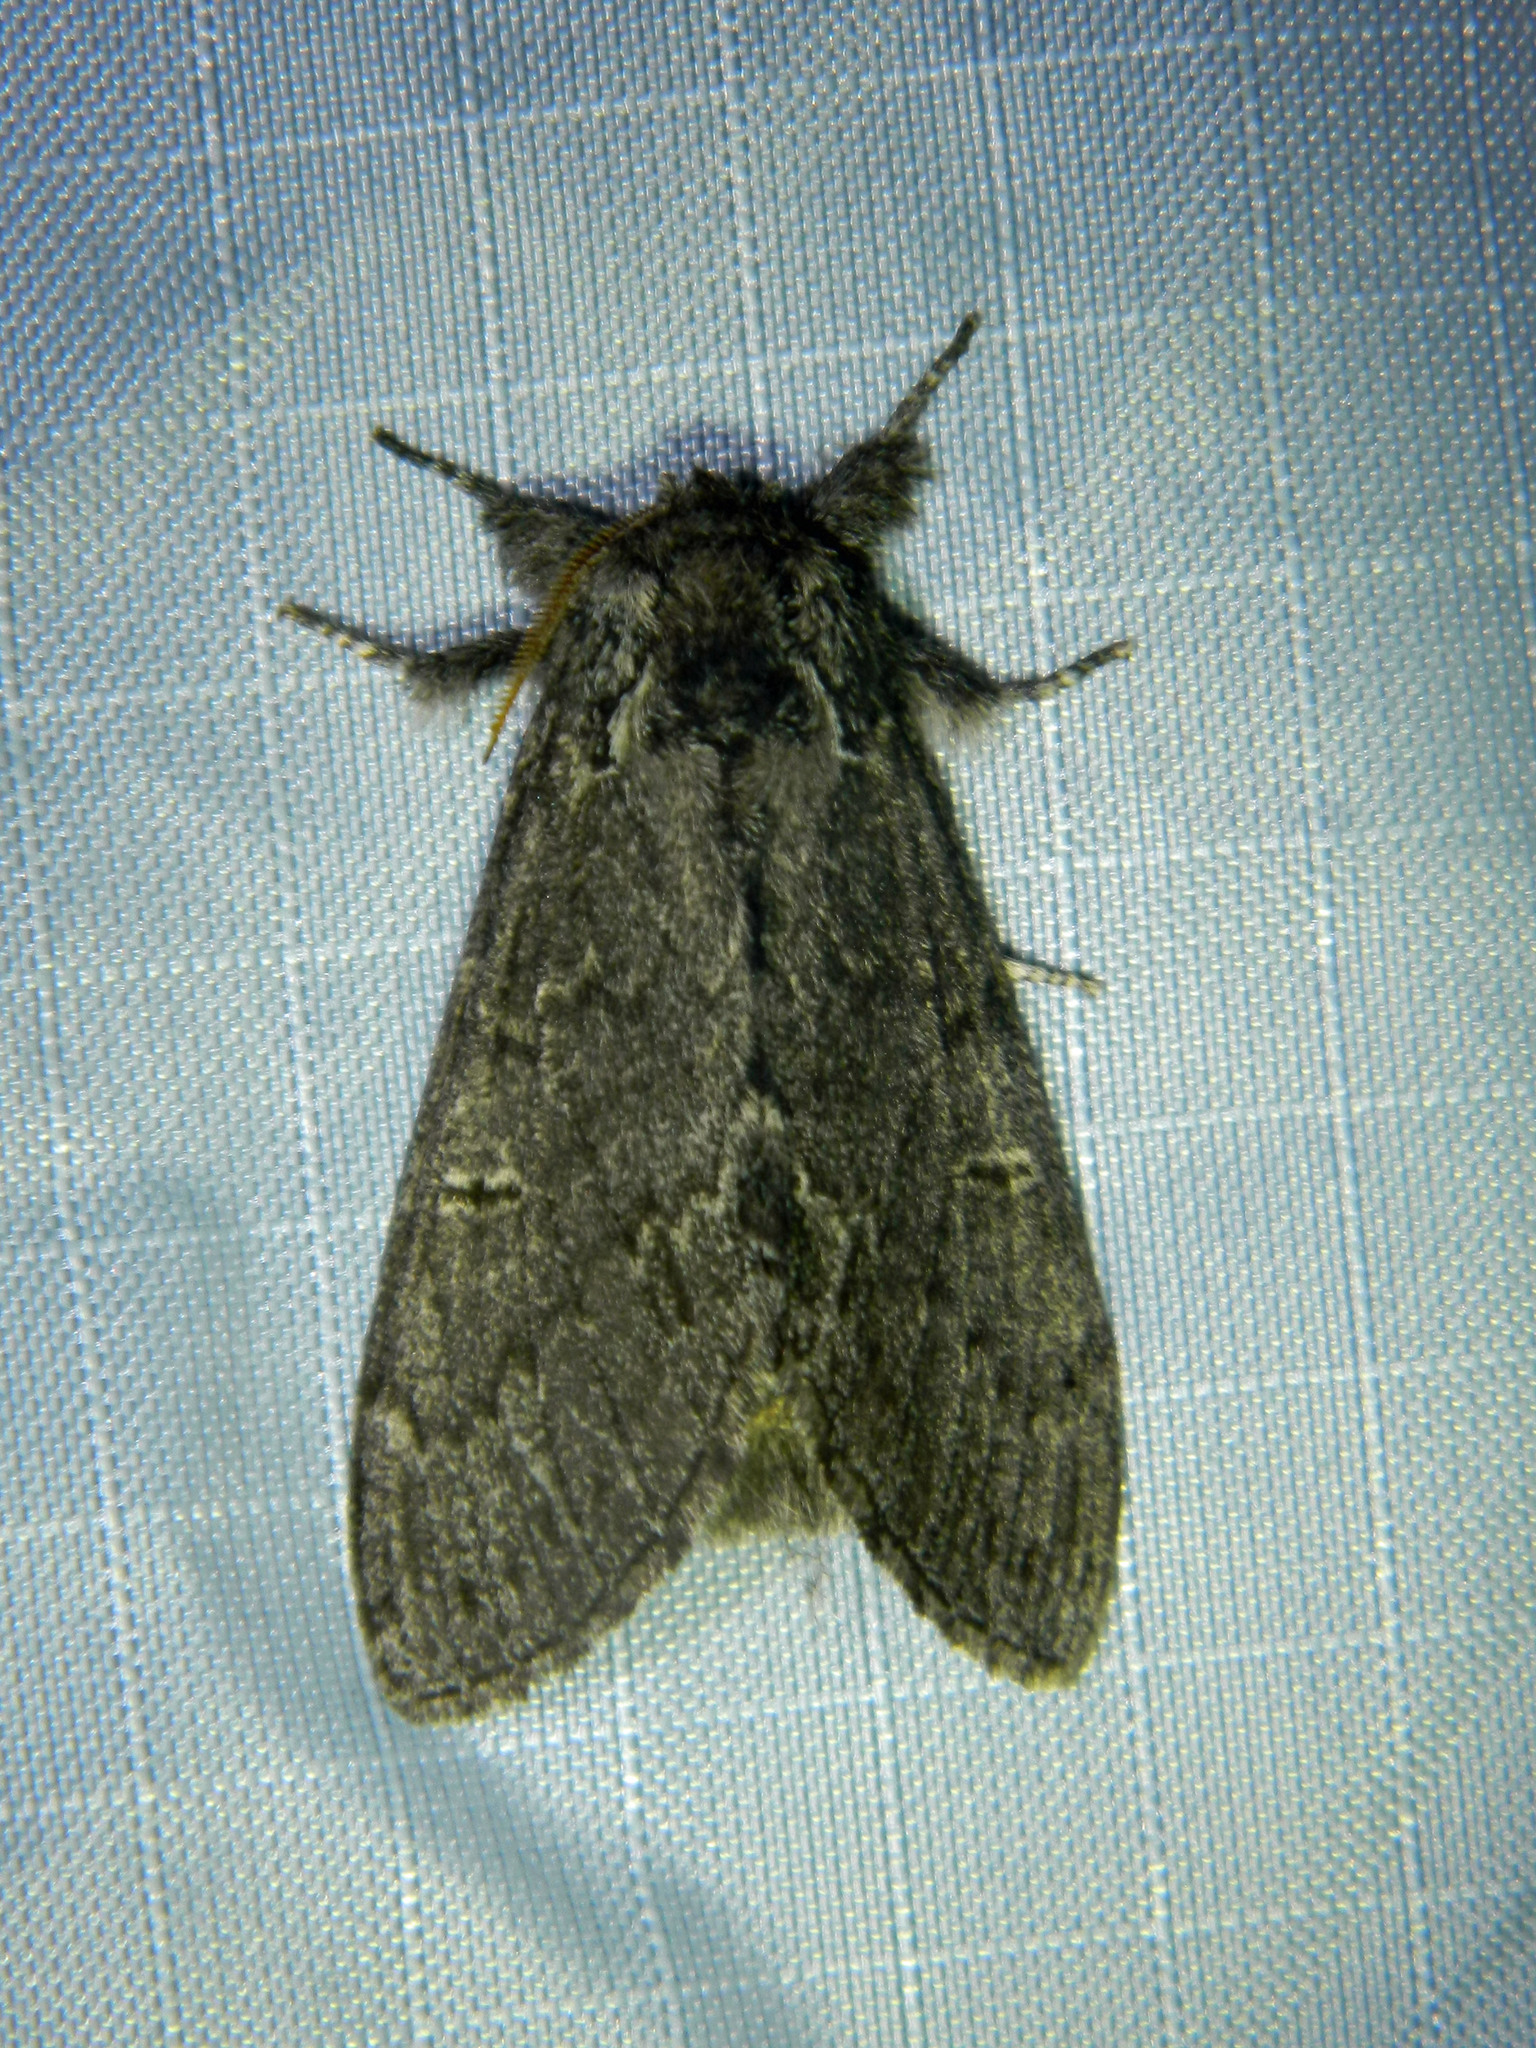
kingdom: Animalia
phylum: Arthropoda
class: Insecta
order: Lepidoptera
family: Notodontidae
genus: Notodonta
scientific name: Notodonta torva
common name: Large dark prominent
